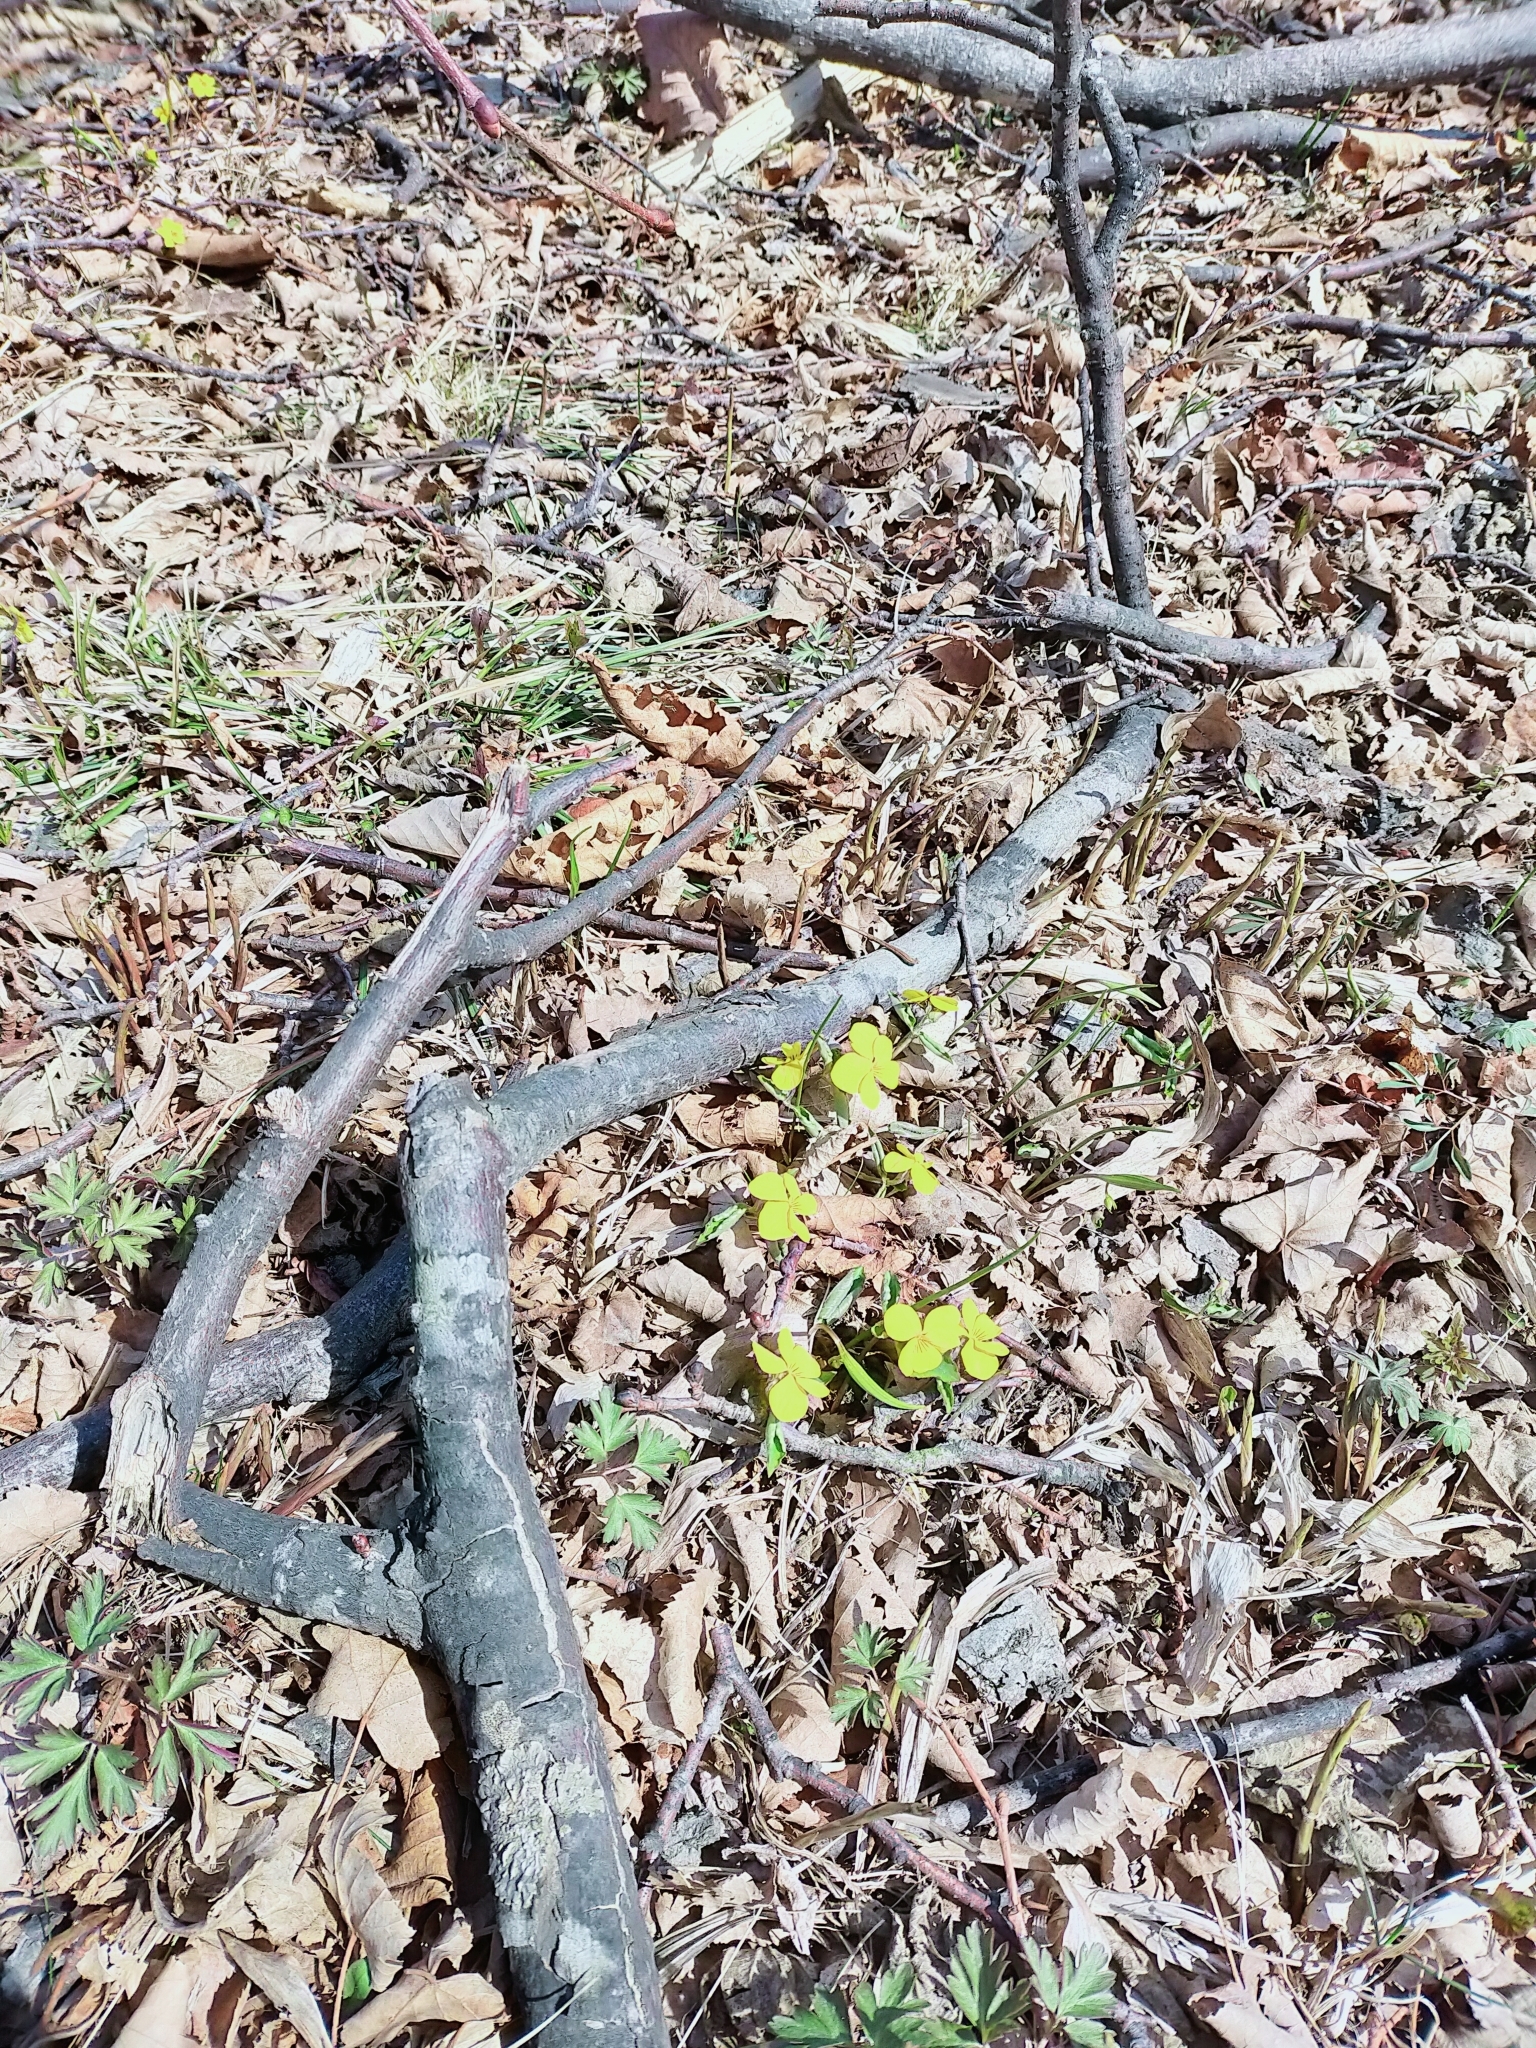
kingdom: Plantae
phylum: Tracheophyta
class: Magnoliopsida
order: Malpighiales
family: Violaceae
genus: Viola
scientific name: Viola orientalis
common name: Golden violet
